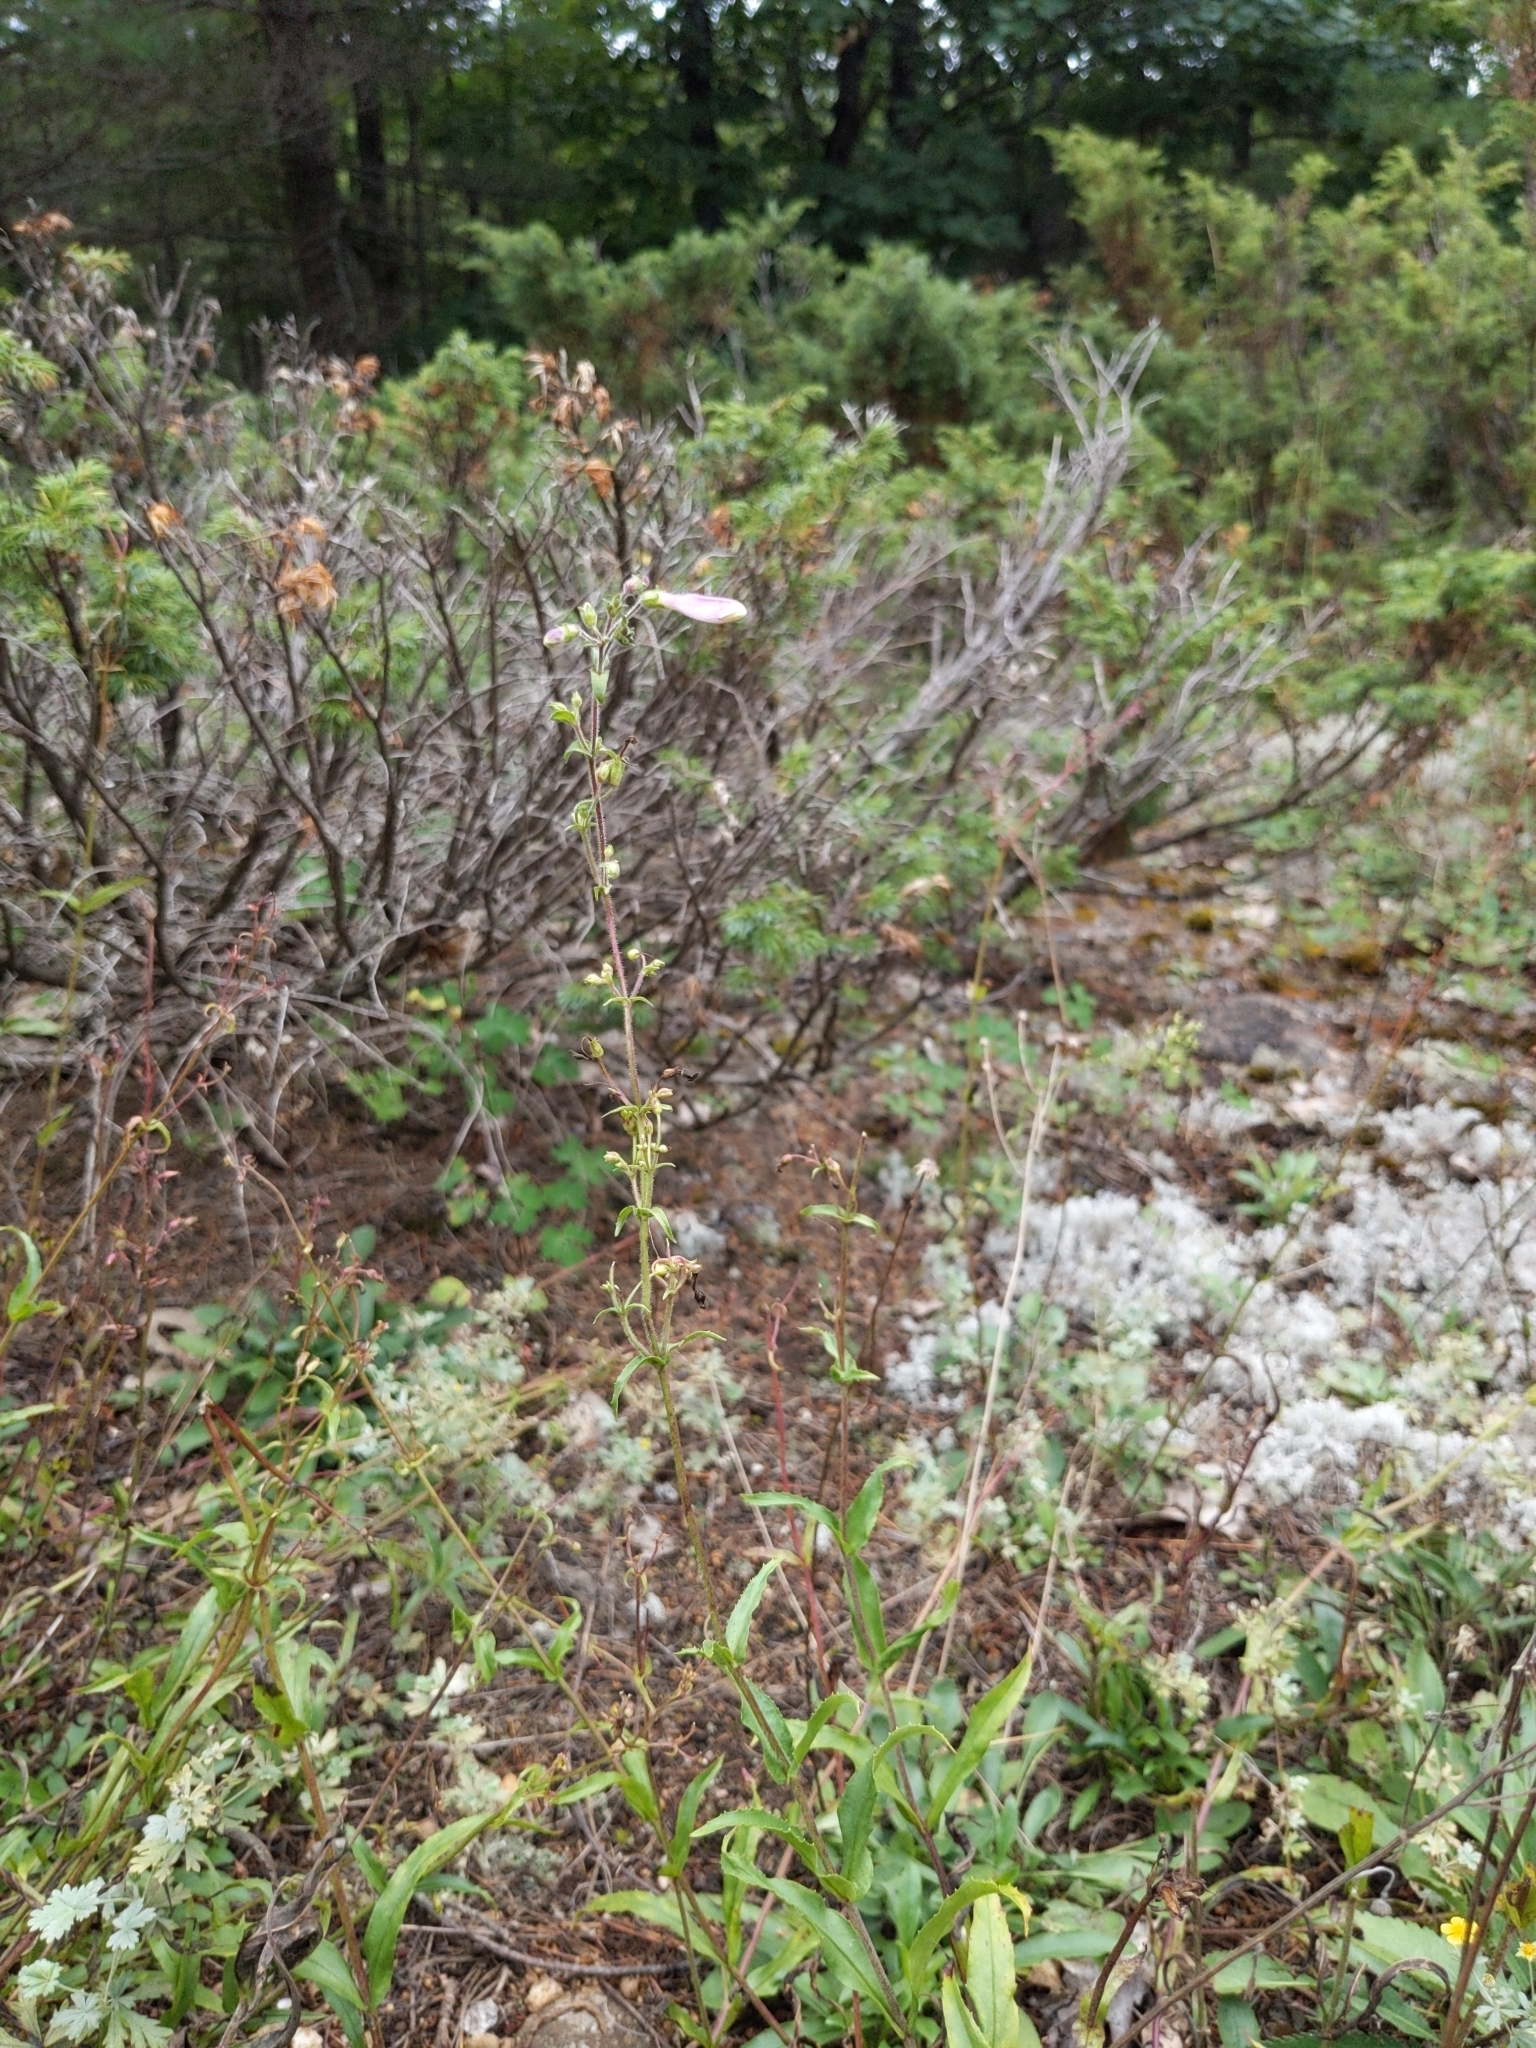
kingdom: Plantae
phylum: Tracheophyta
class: Magnoliopsida
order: Lamiales
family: Plantaginaceae
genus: Penstemon
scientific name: Penstemon hirsutus
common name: Hairy beardtongue
